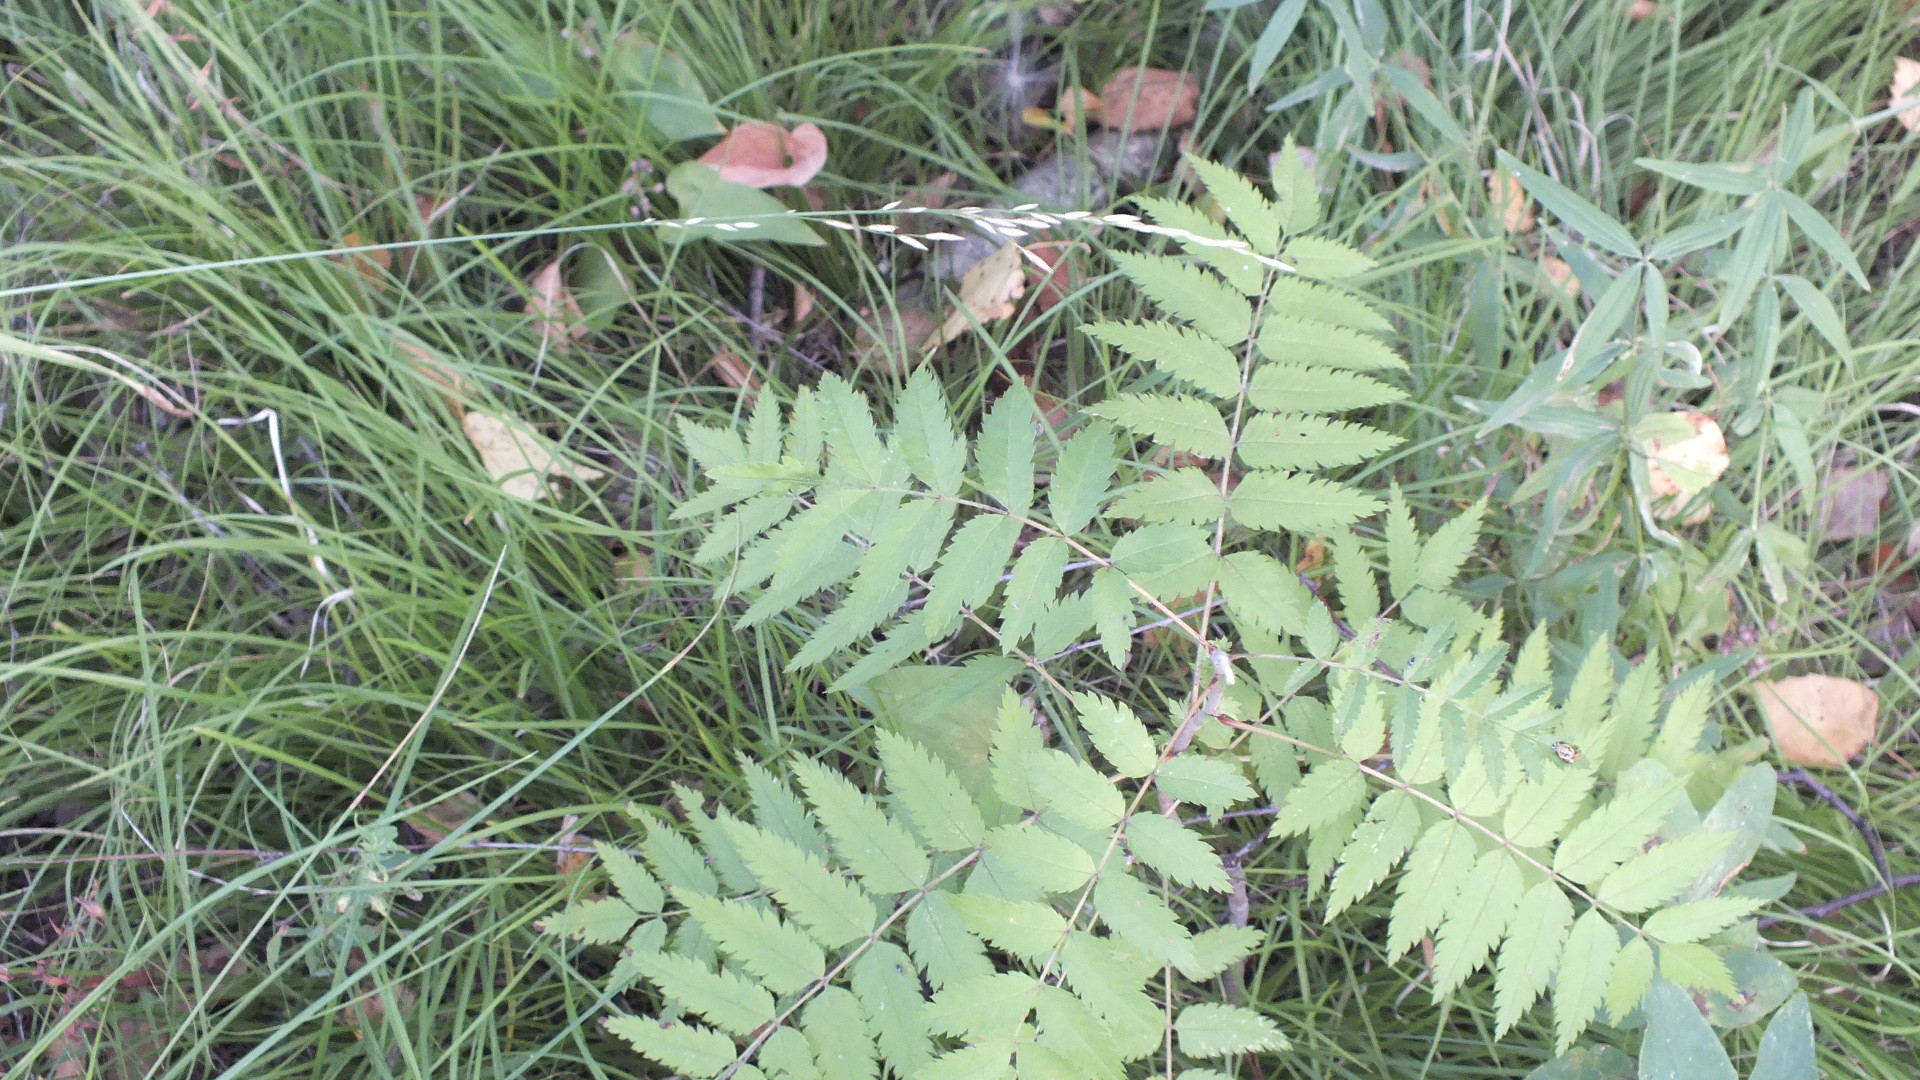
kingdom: Plantae
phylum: Tracheophyta
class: Magnoliopsida
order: Rosales
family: Rosaceae
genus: Sorbus
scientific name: Sorbus aucuparia
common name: Rowan
